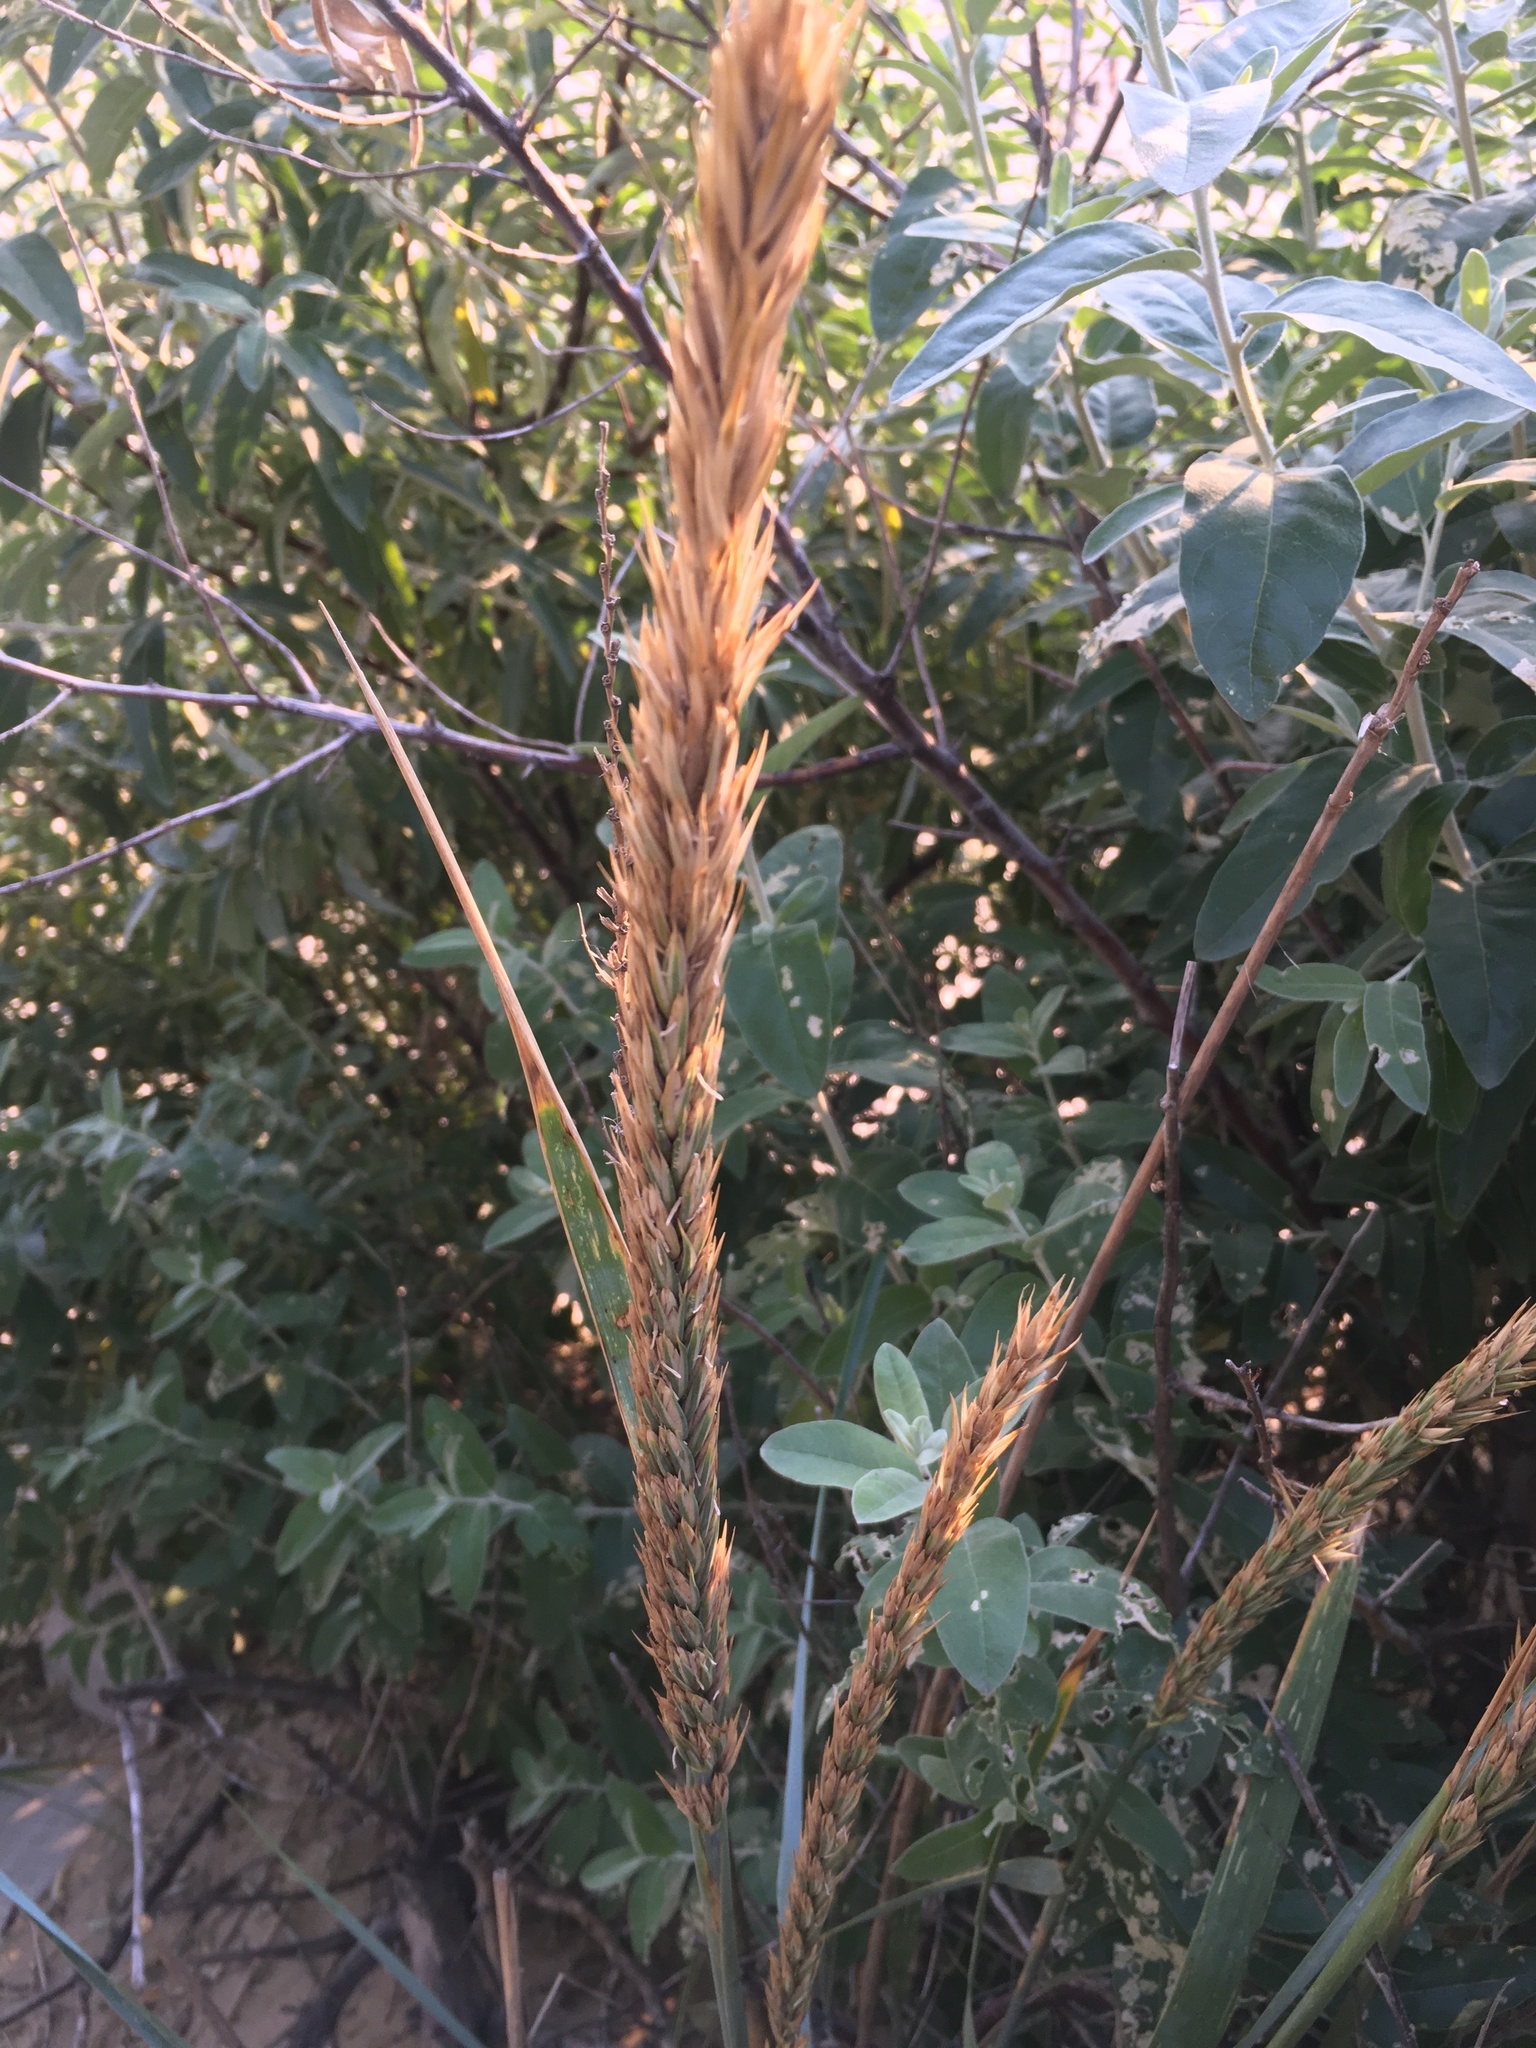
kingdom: Plantae
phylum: Tracheophyta
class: Liliopsida
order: Poales
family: Poaceae
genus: Leymus
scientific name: Leymus racemosus
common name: Mammoth wildrye
